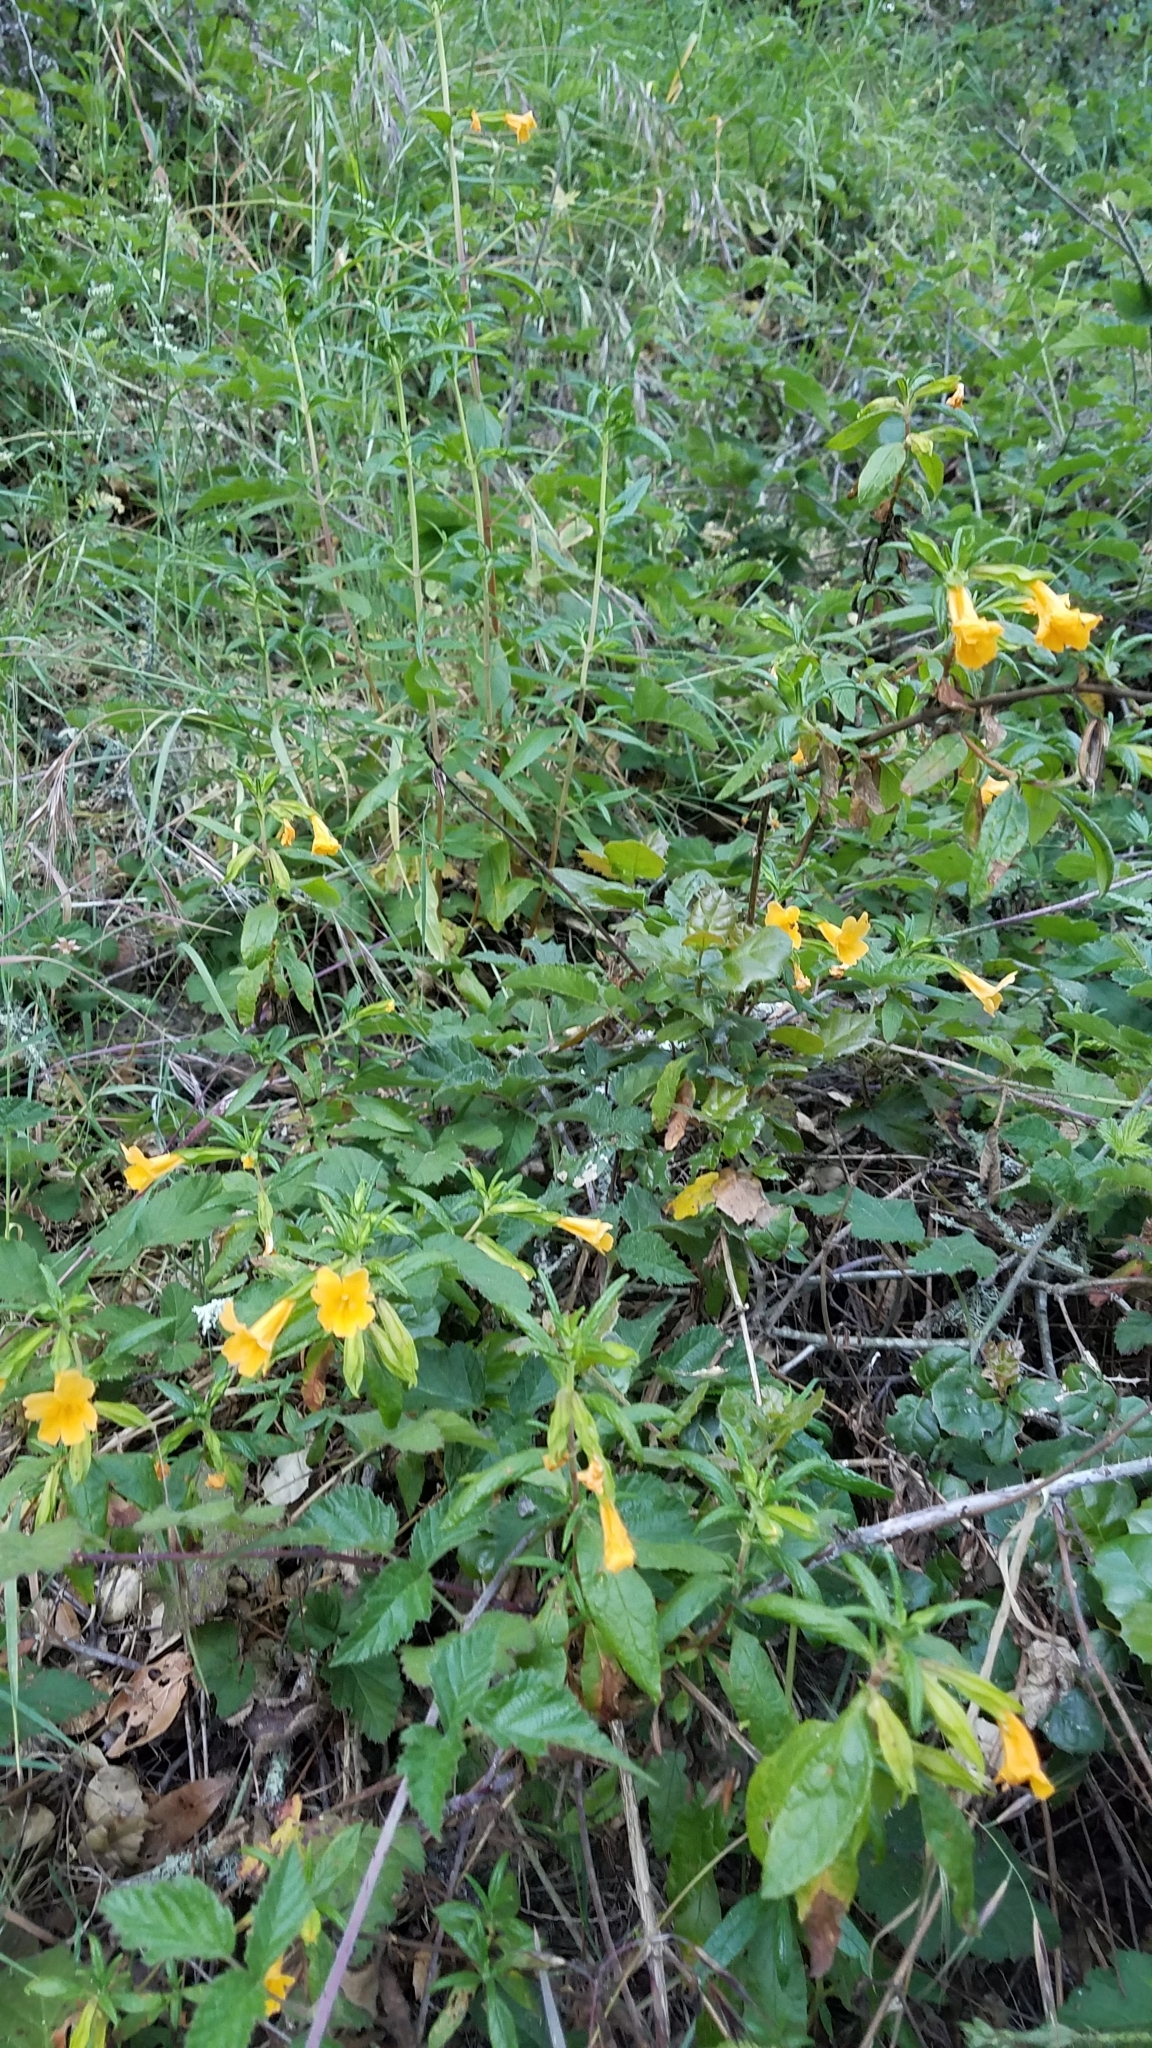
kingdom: Plantae
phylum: Tracheophyta
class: Magnoliopsida
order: Lamiales
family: Phrymaceae
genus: Diplacus
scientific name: Diplacus aurantiacus
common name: Bush monkey-flower
